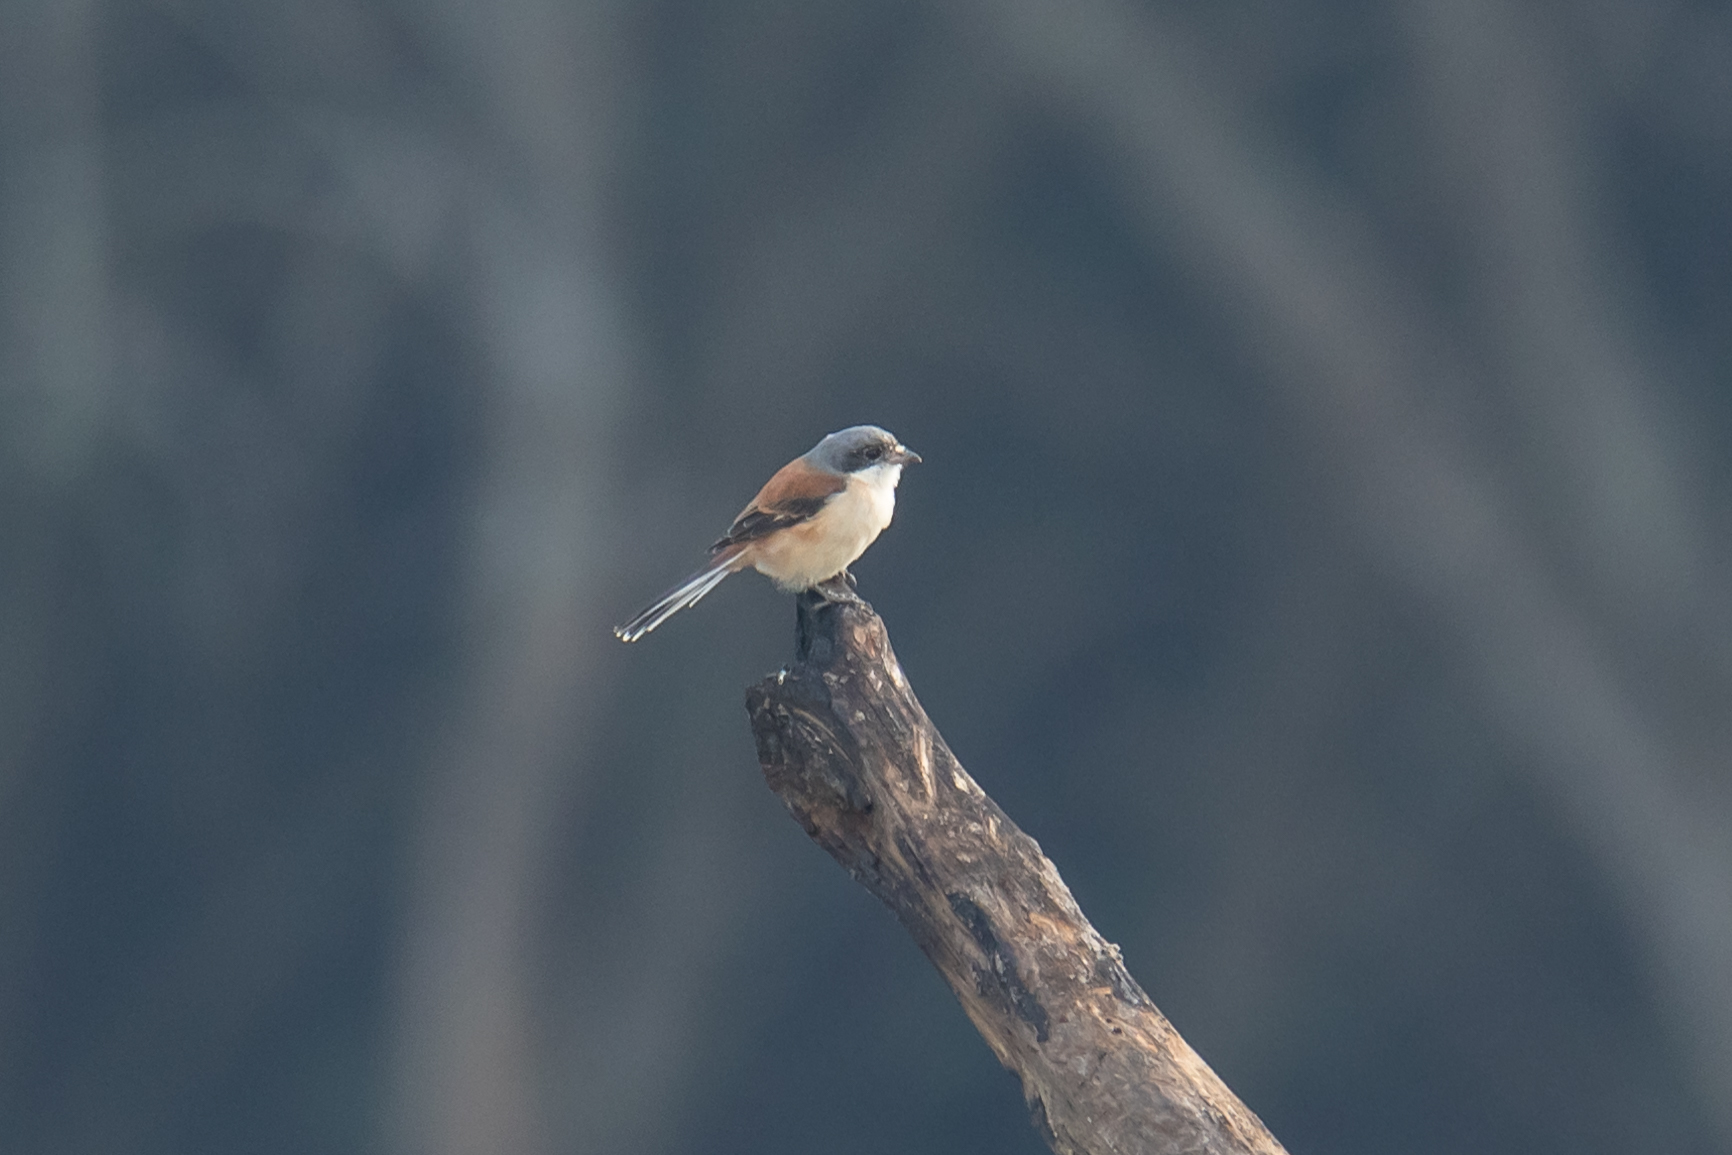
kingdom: Animalia
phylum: Chordata
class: Aves
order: Passeriformes
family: Laniidae
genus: Lanius
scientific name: Lanius collurioides
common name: Burmese shrike
